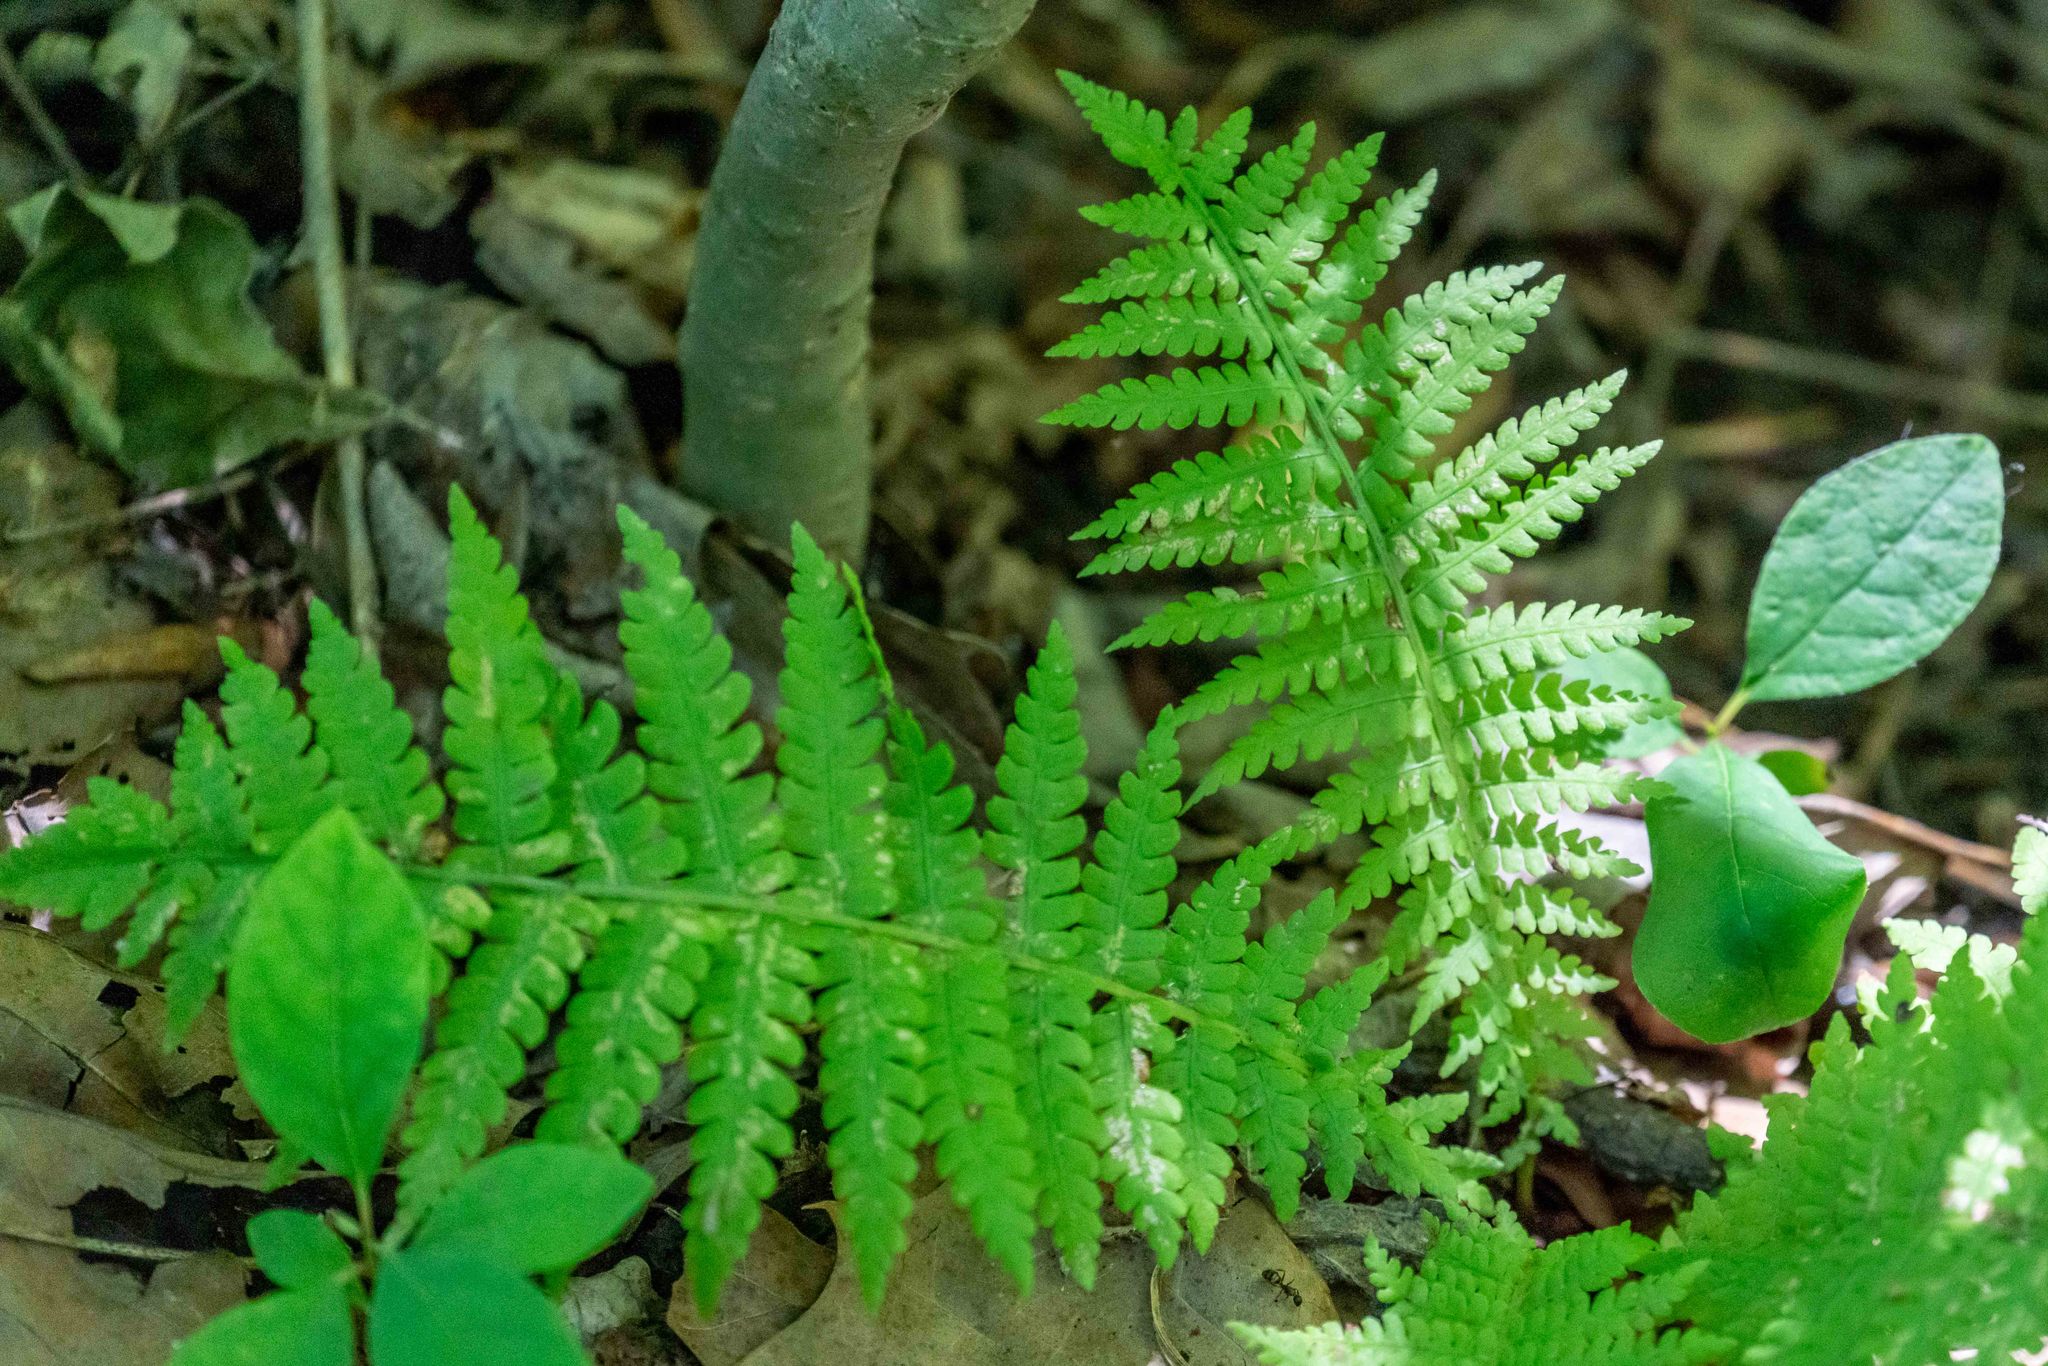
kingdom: Plantae
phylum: Tracheophyta
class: Polypodiopsida
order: Polypodiales
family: Thelypteridaceae
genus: Amauropelta
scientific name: Amauropelta noveboracensis
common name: New york fern
